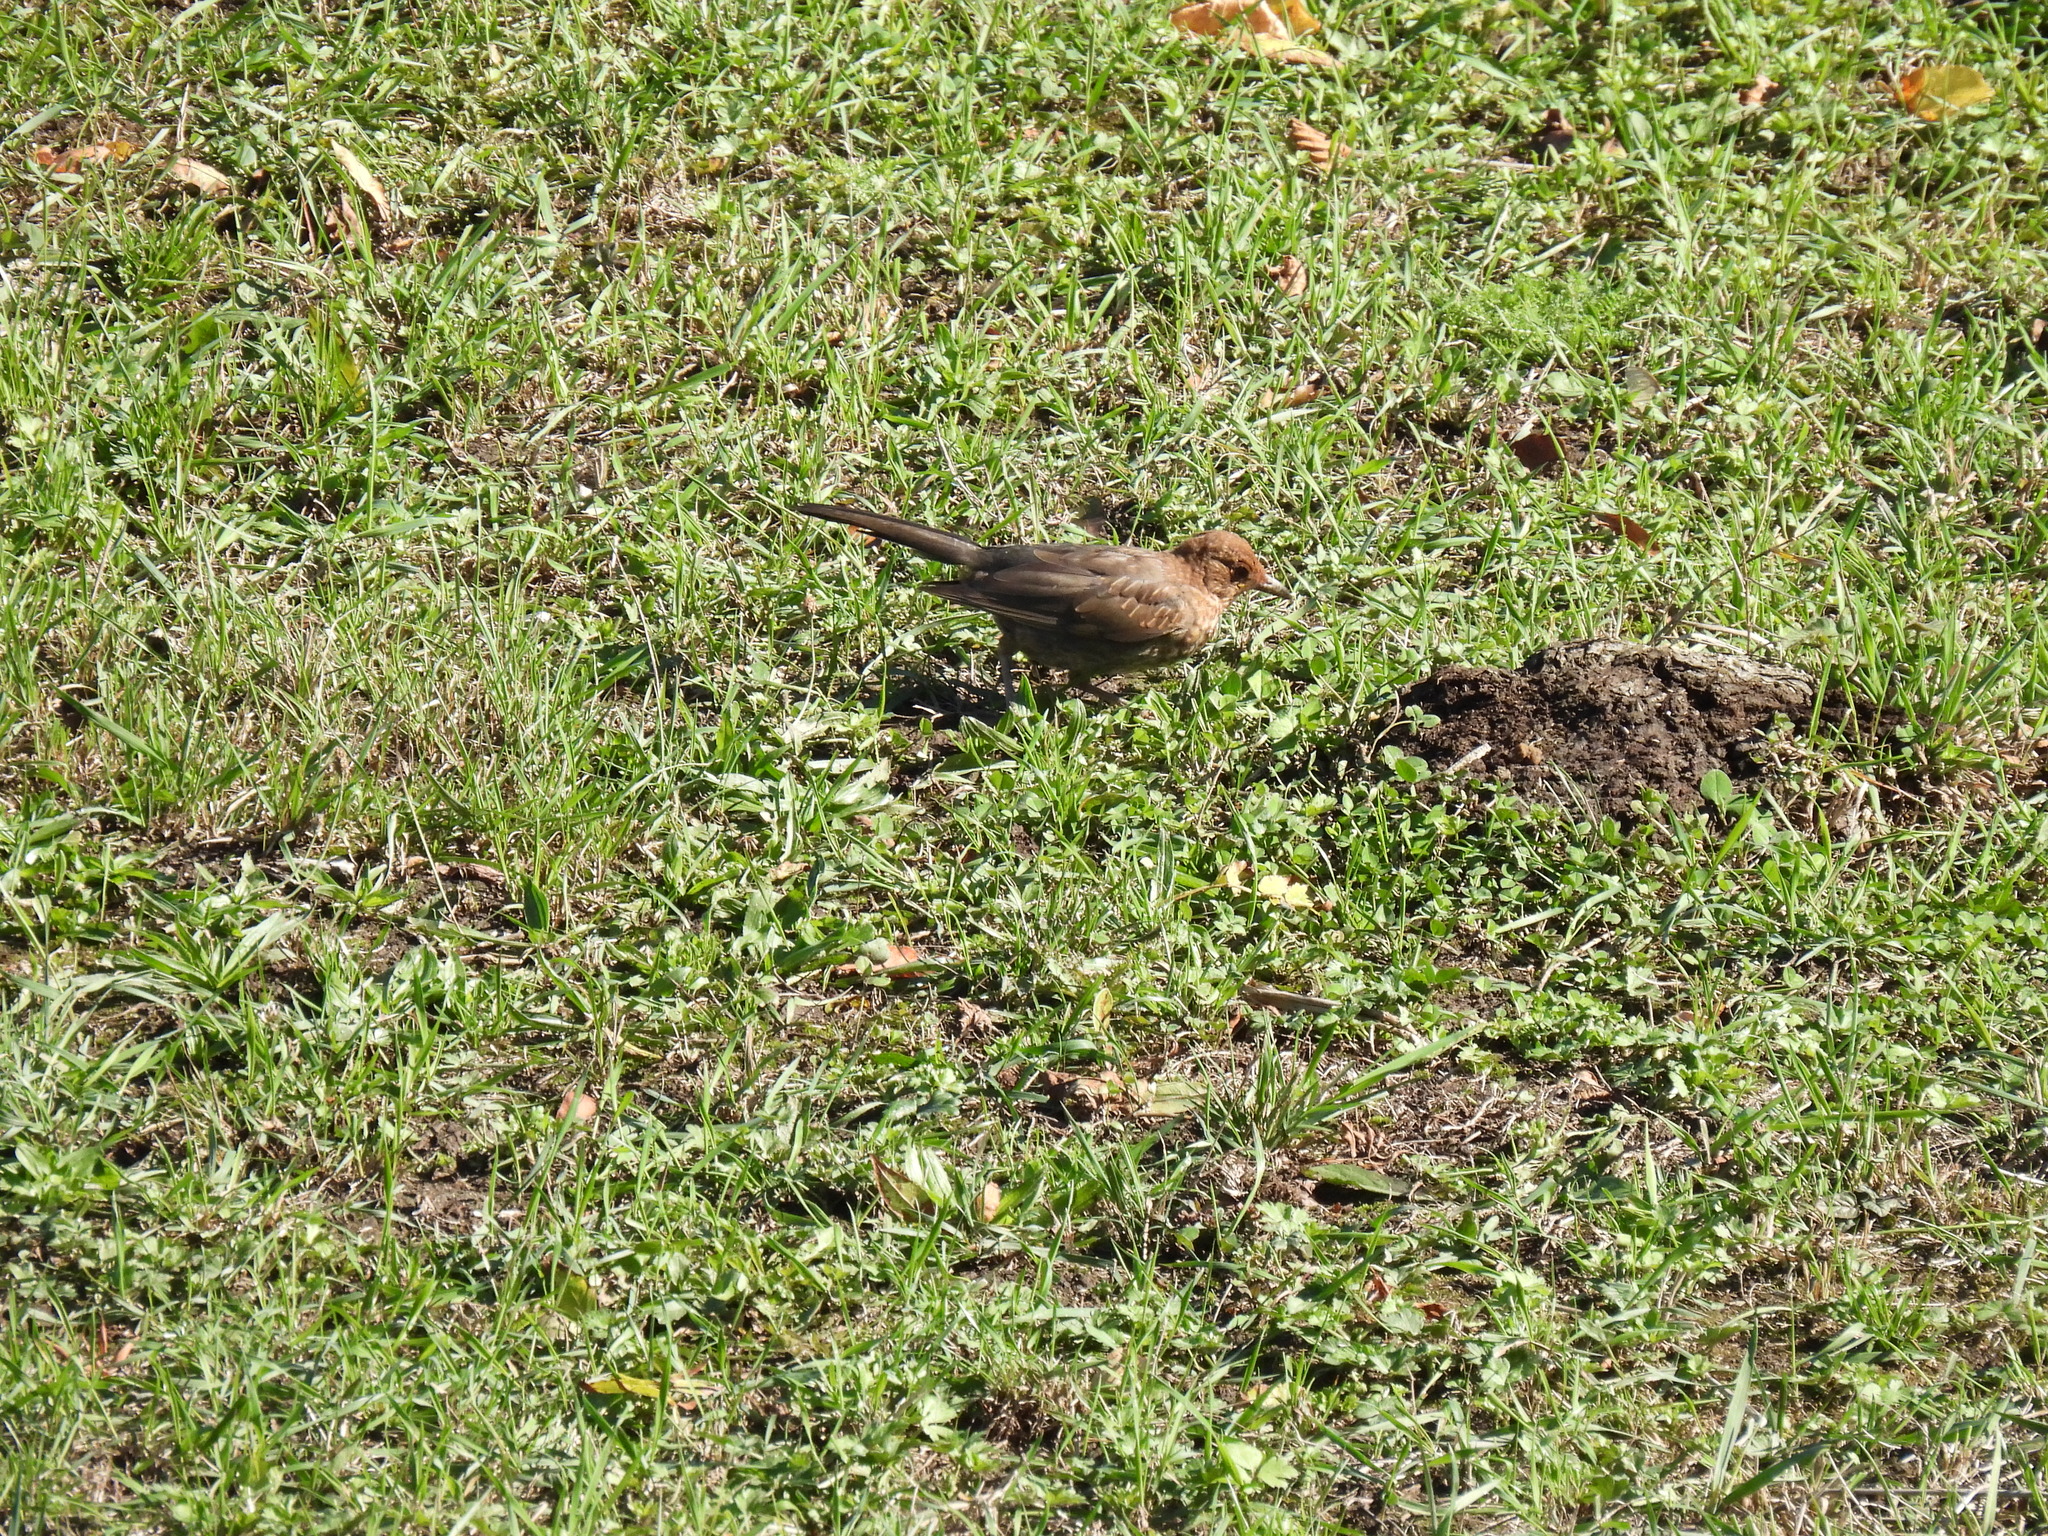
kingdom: Animalia
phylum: Chordata
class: Aves
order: Passeriformes
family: Turdidae
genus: Turdus
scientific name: Turdus merula
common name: Common blackbird
